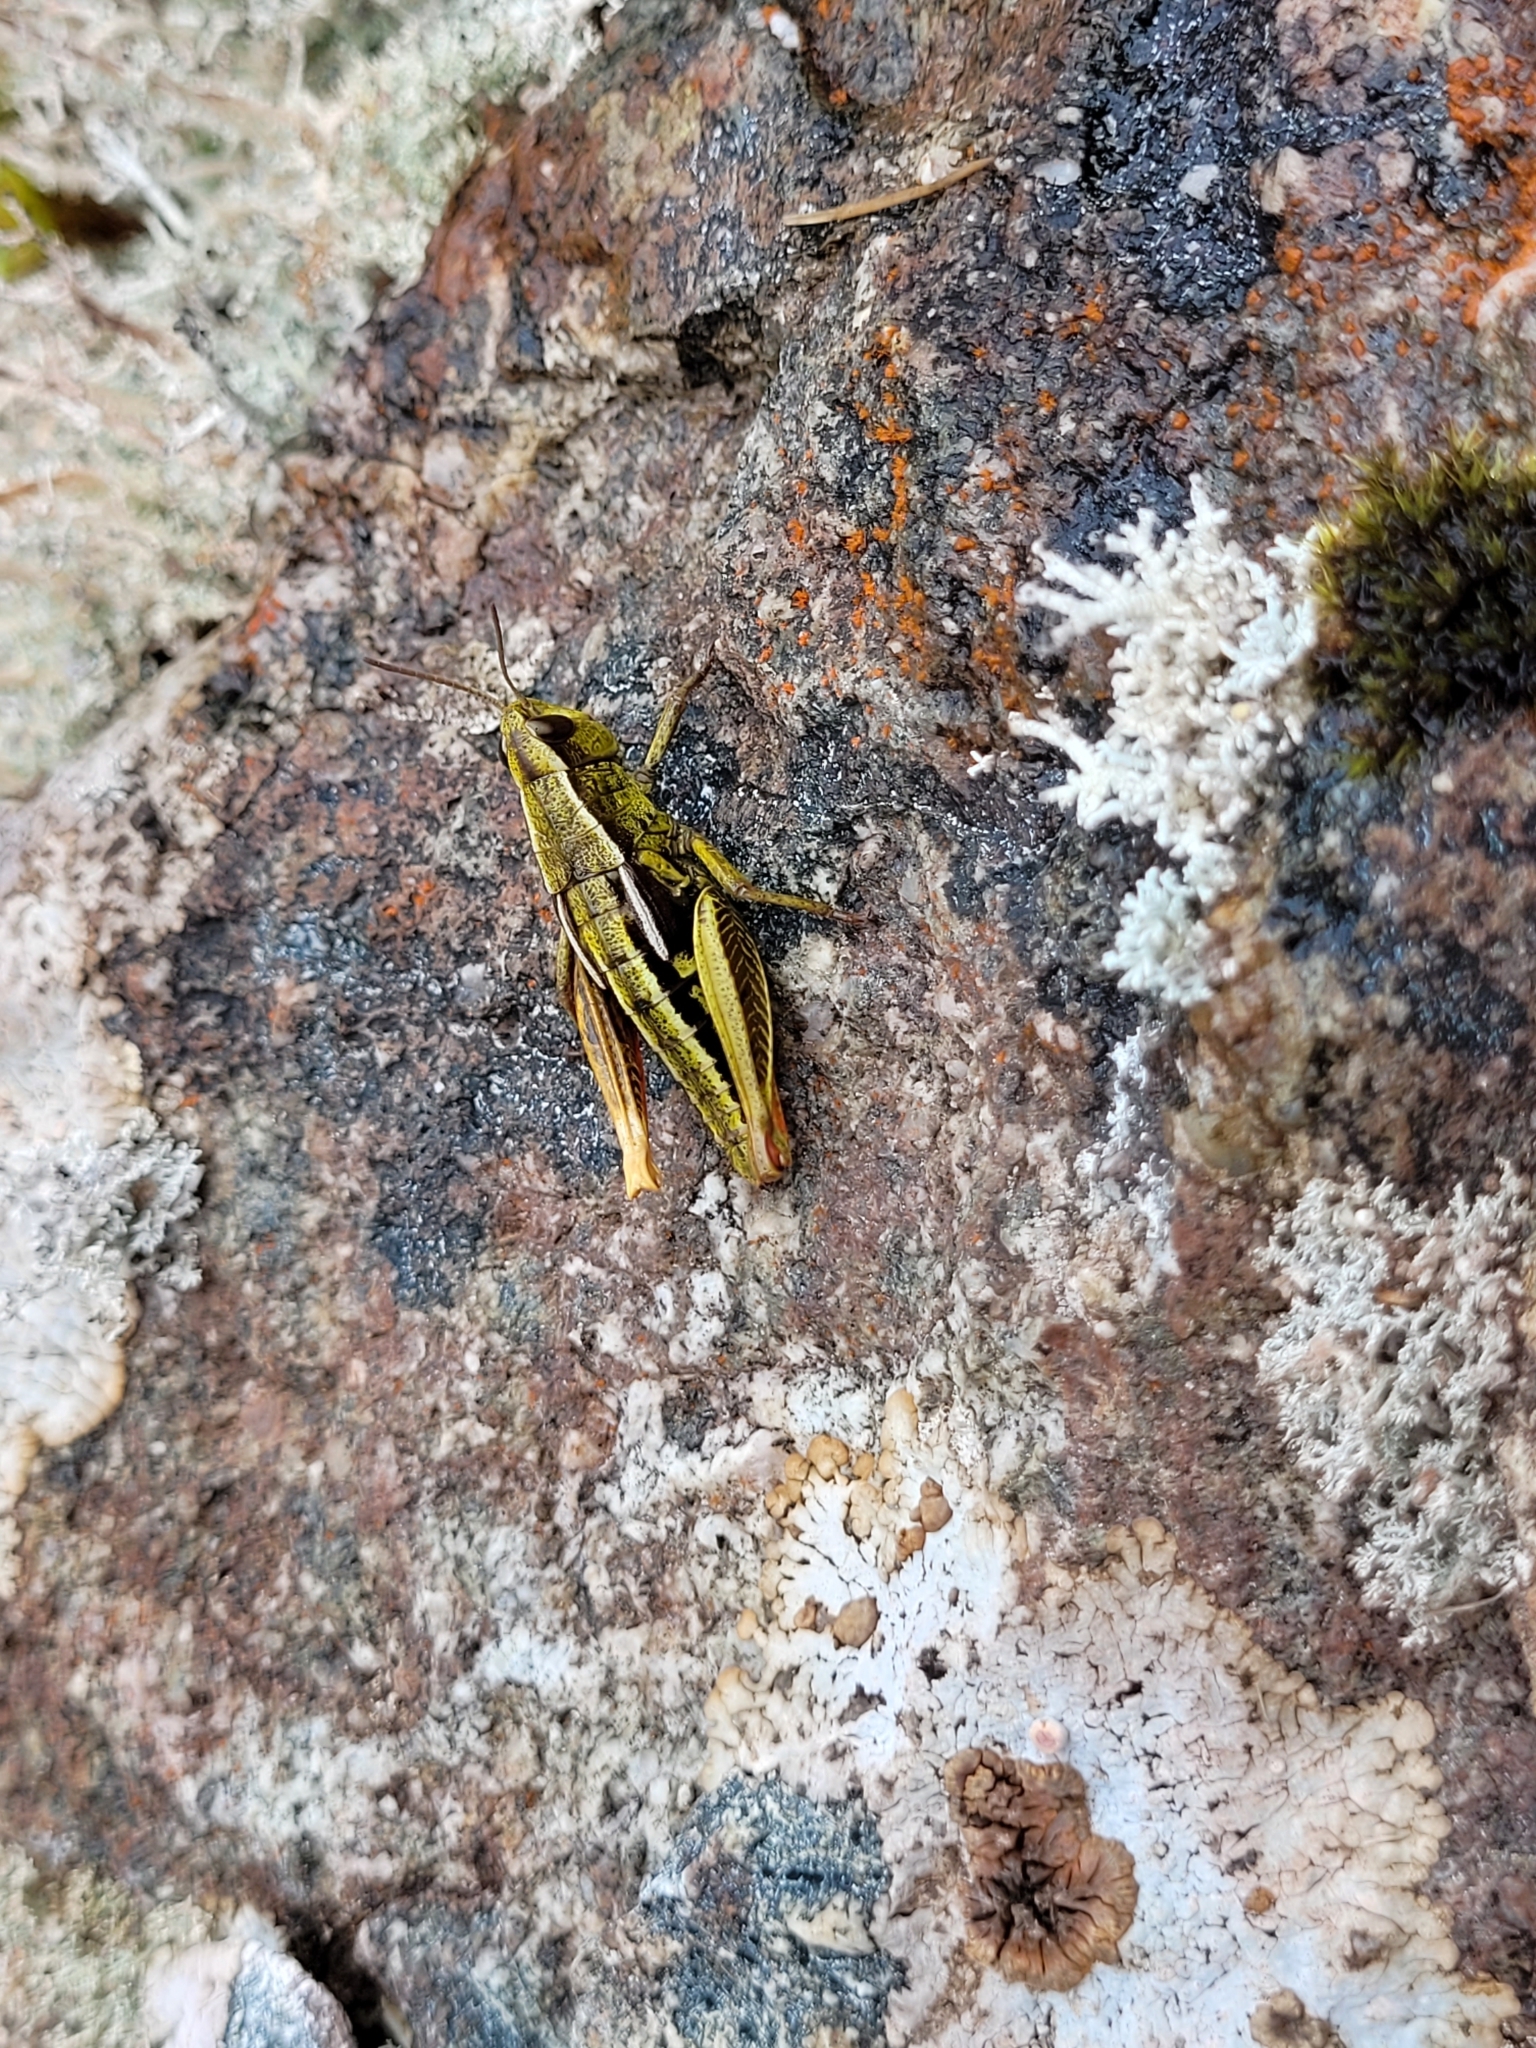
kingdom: Animalia
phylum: Arthropoda
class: Insecta
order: Orthoptera
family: Acrididae
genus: Sigaus
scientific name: Sigaus
